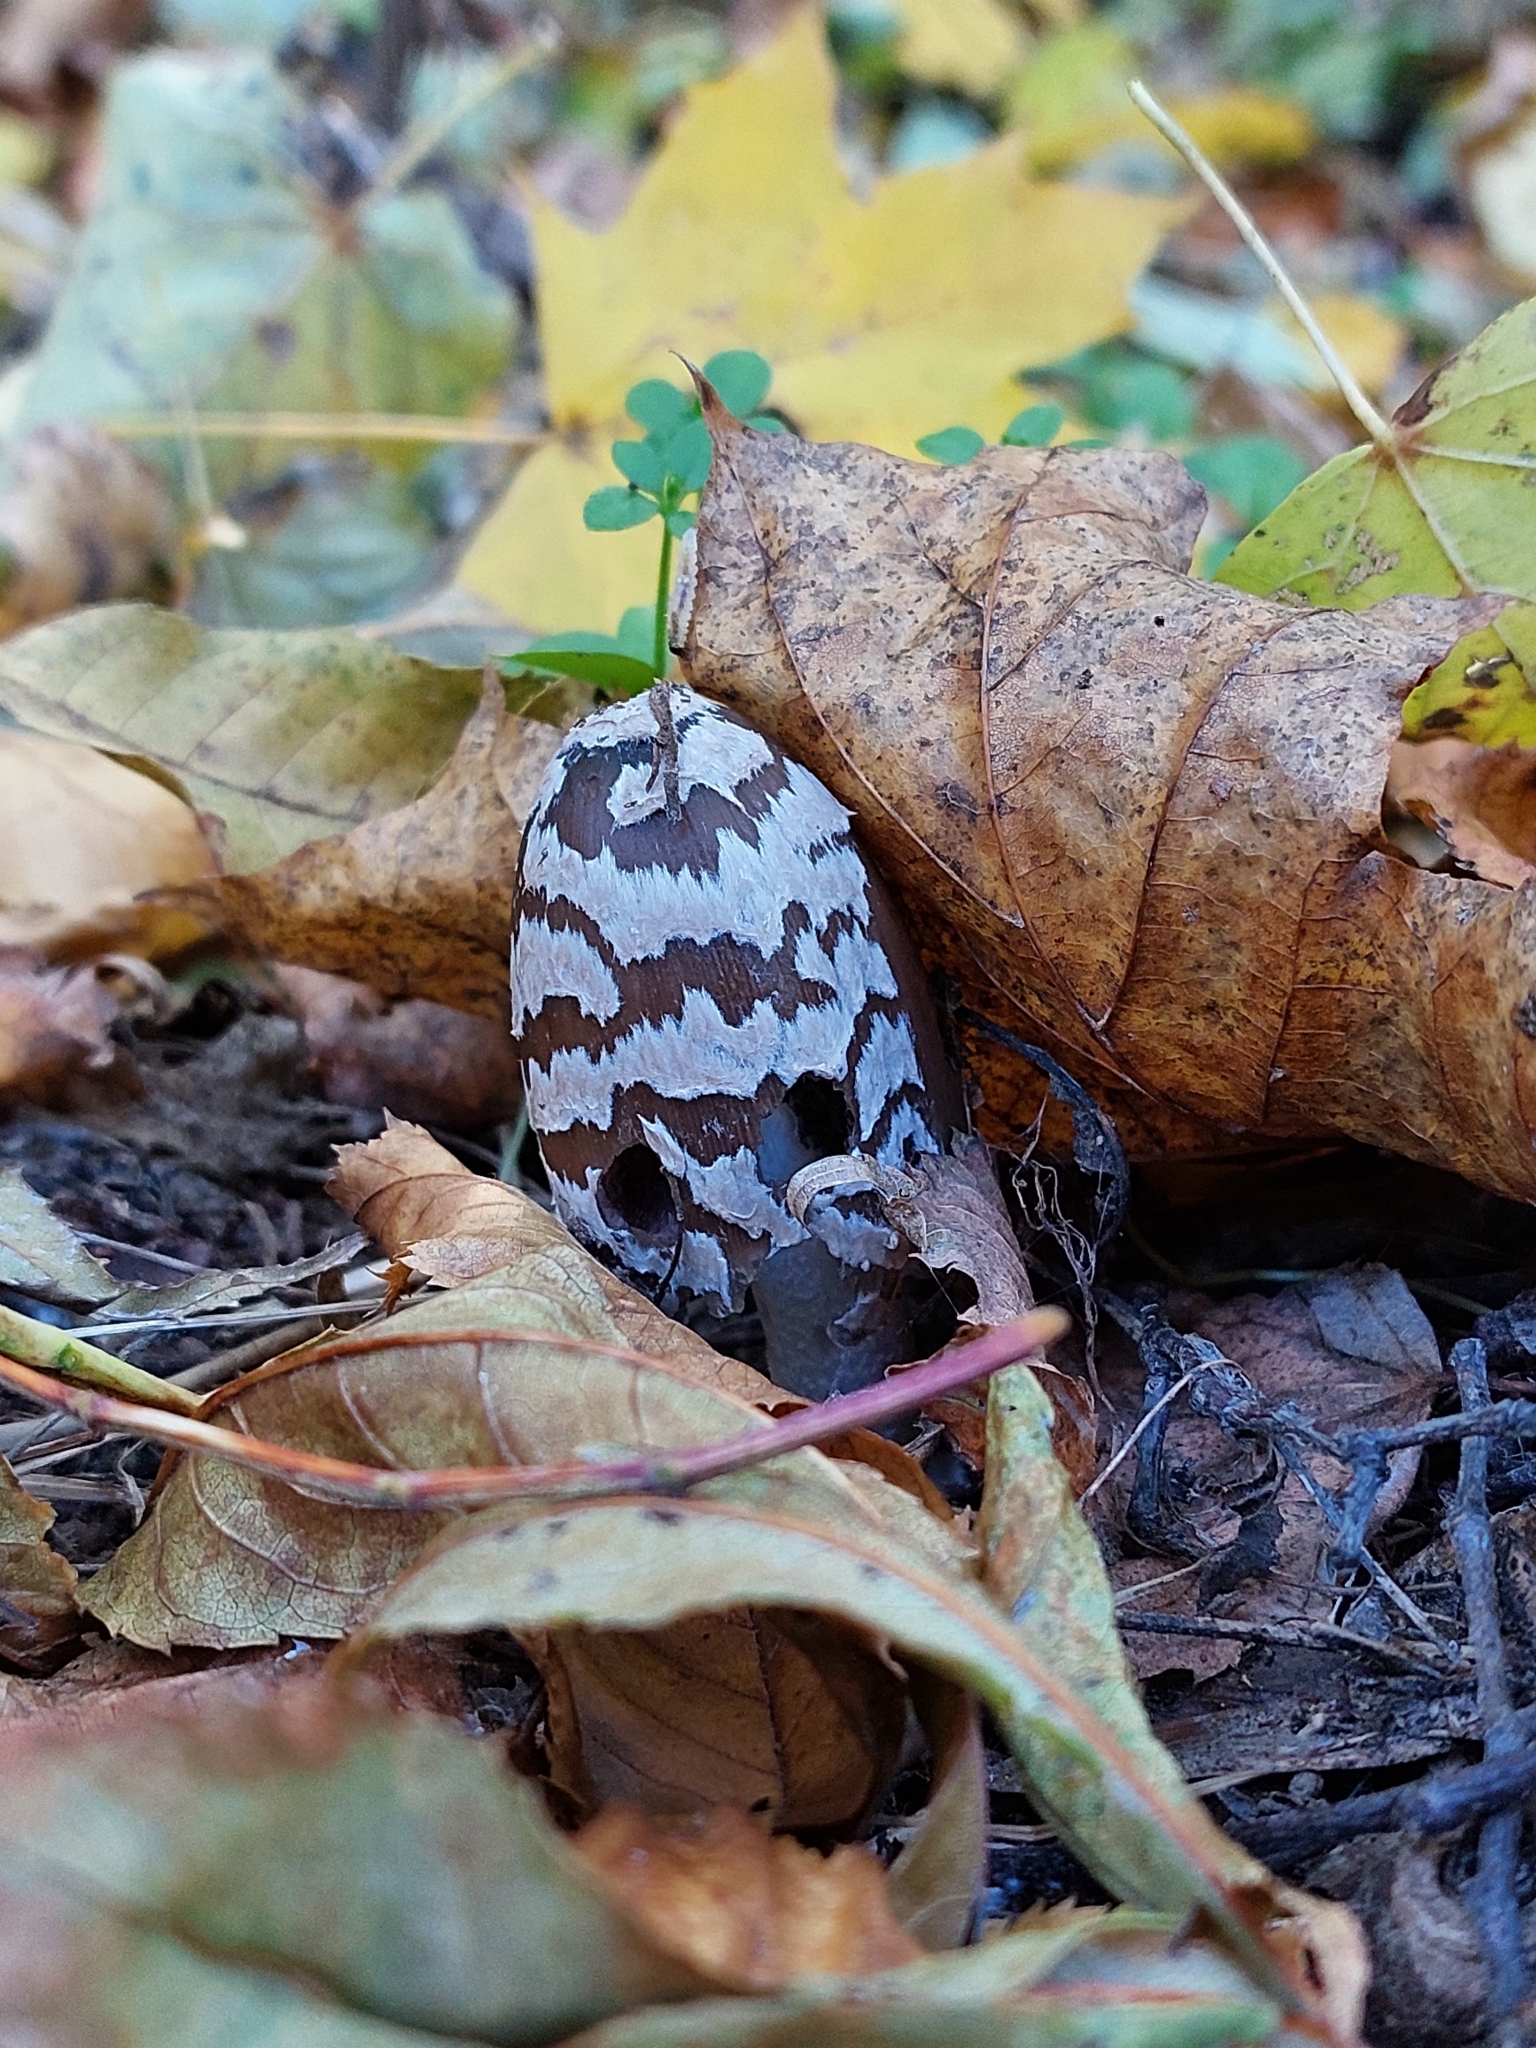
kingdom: Fungi
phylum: Basidiomycota
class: Agaricomycetes
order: Agaricales
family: Psathyrellaceae
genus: Coprinopsis
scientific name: Coprinopsis picacea
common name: Magpie inkcap
